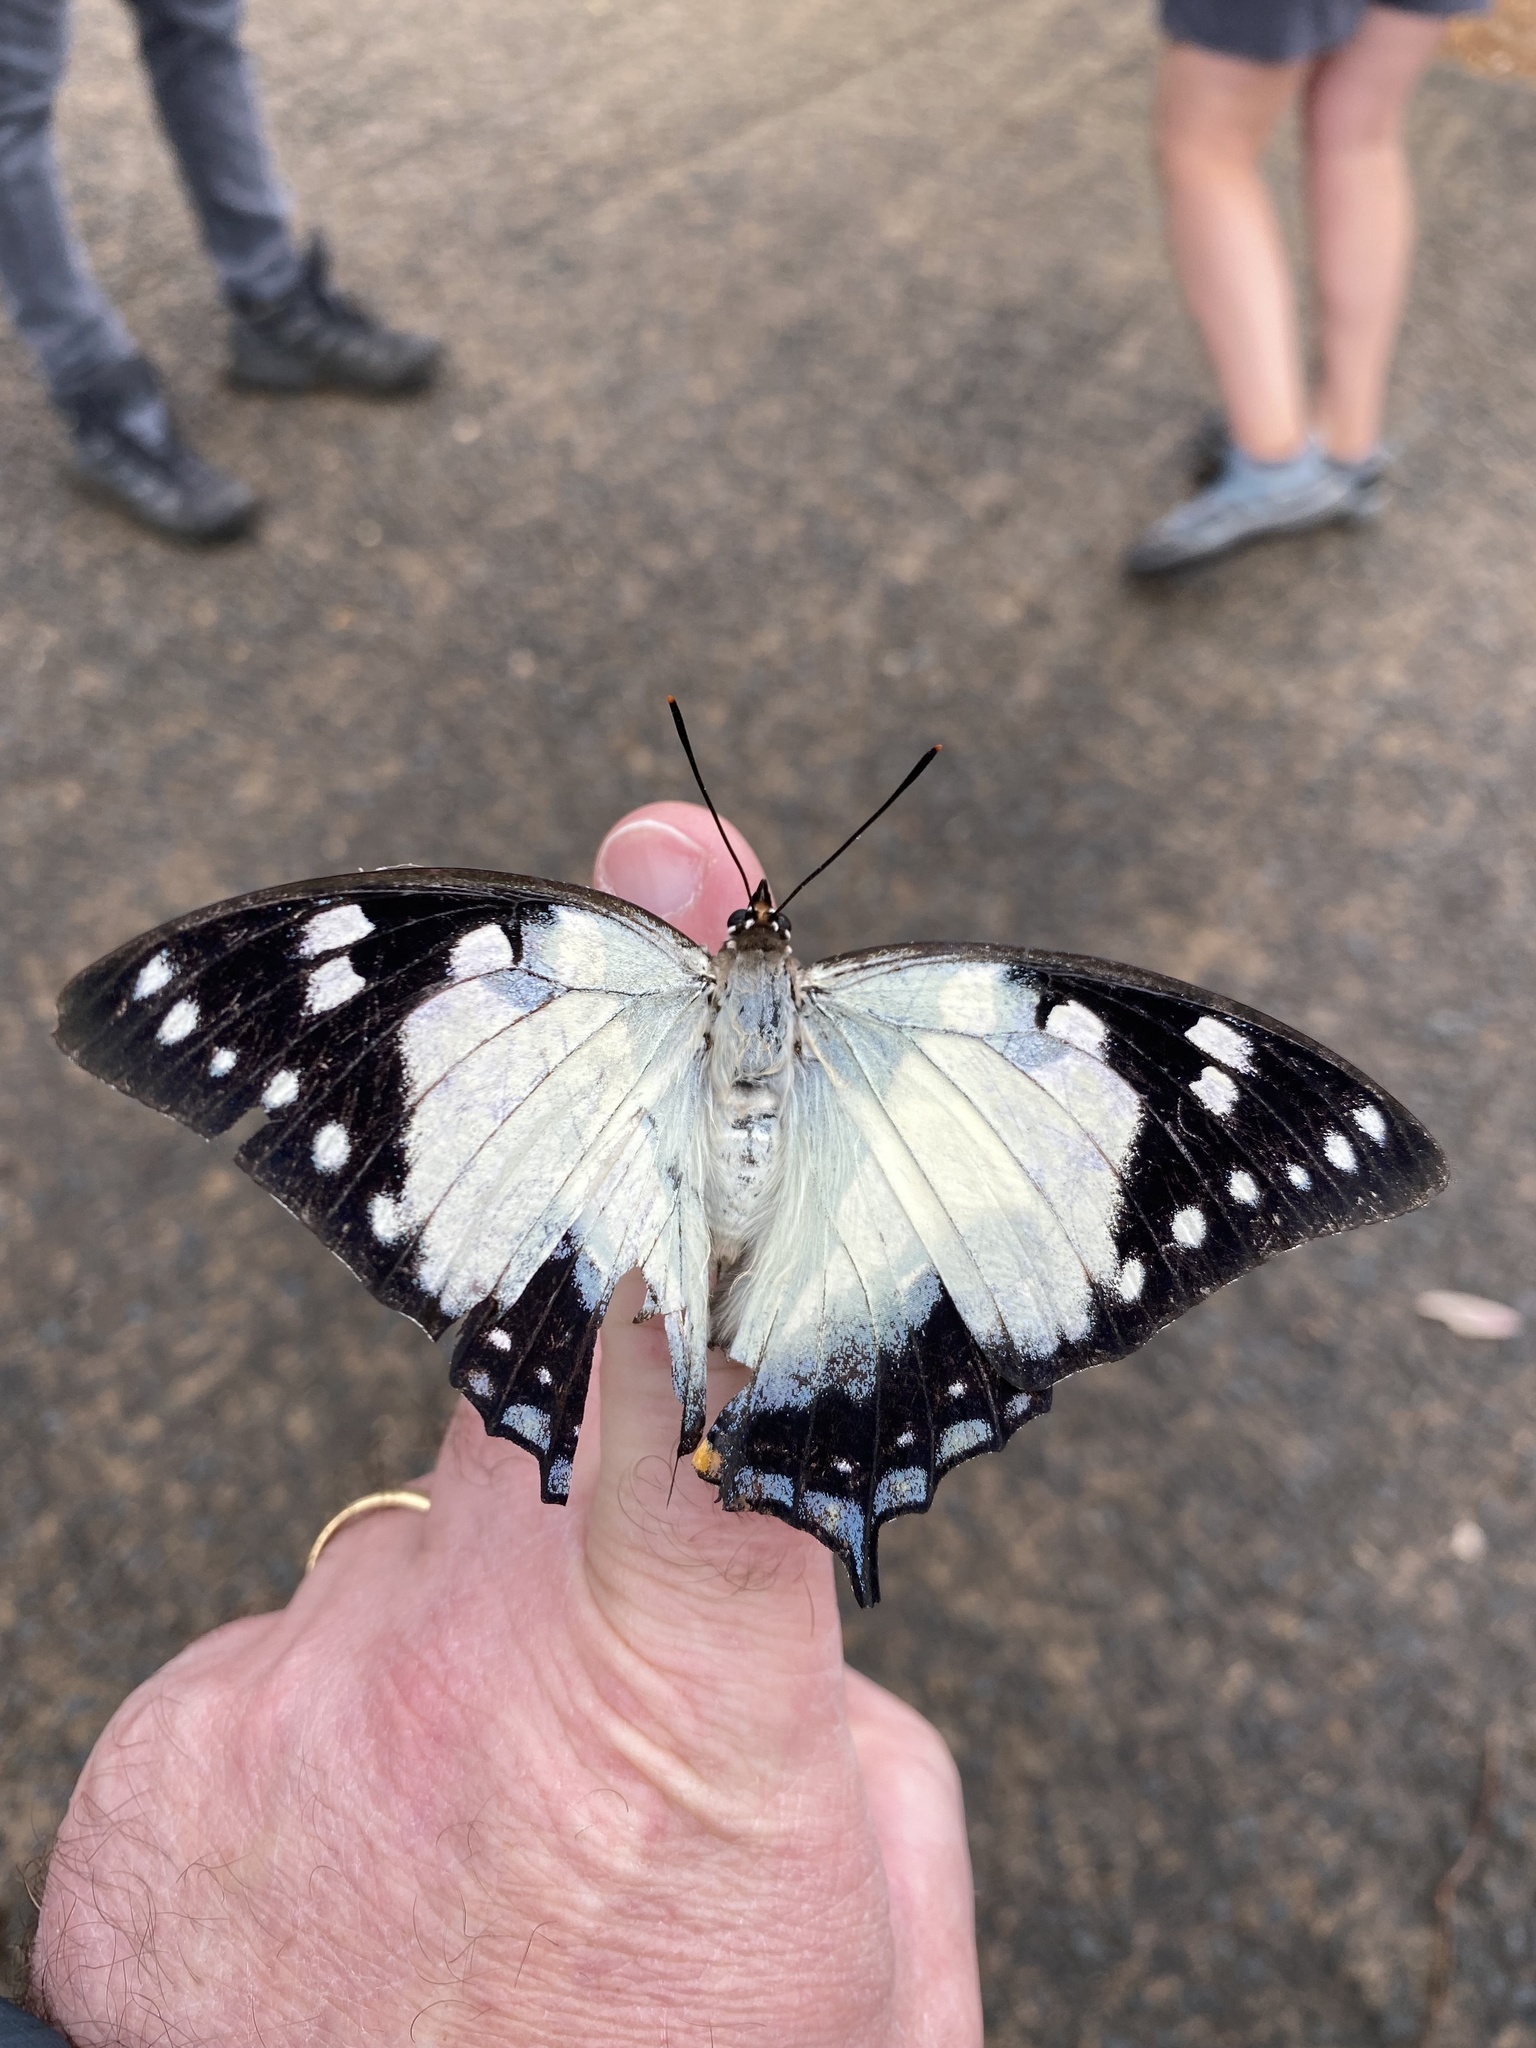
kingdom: Animalia
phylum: Arthropoda
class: Insecta
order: Lepidoptera
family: Nymphalidae
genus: Charaxes
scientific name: Charaxes
